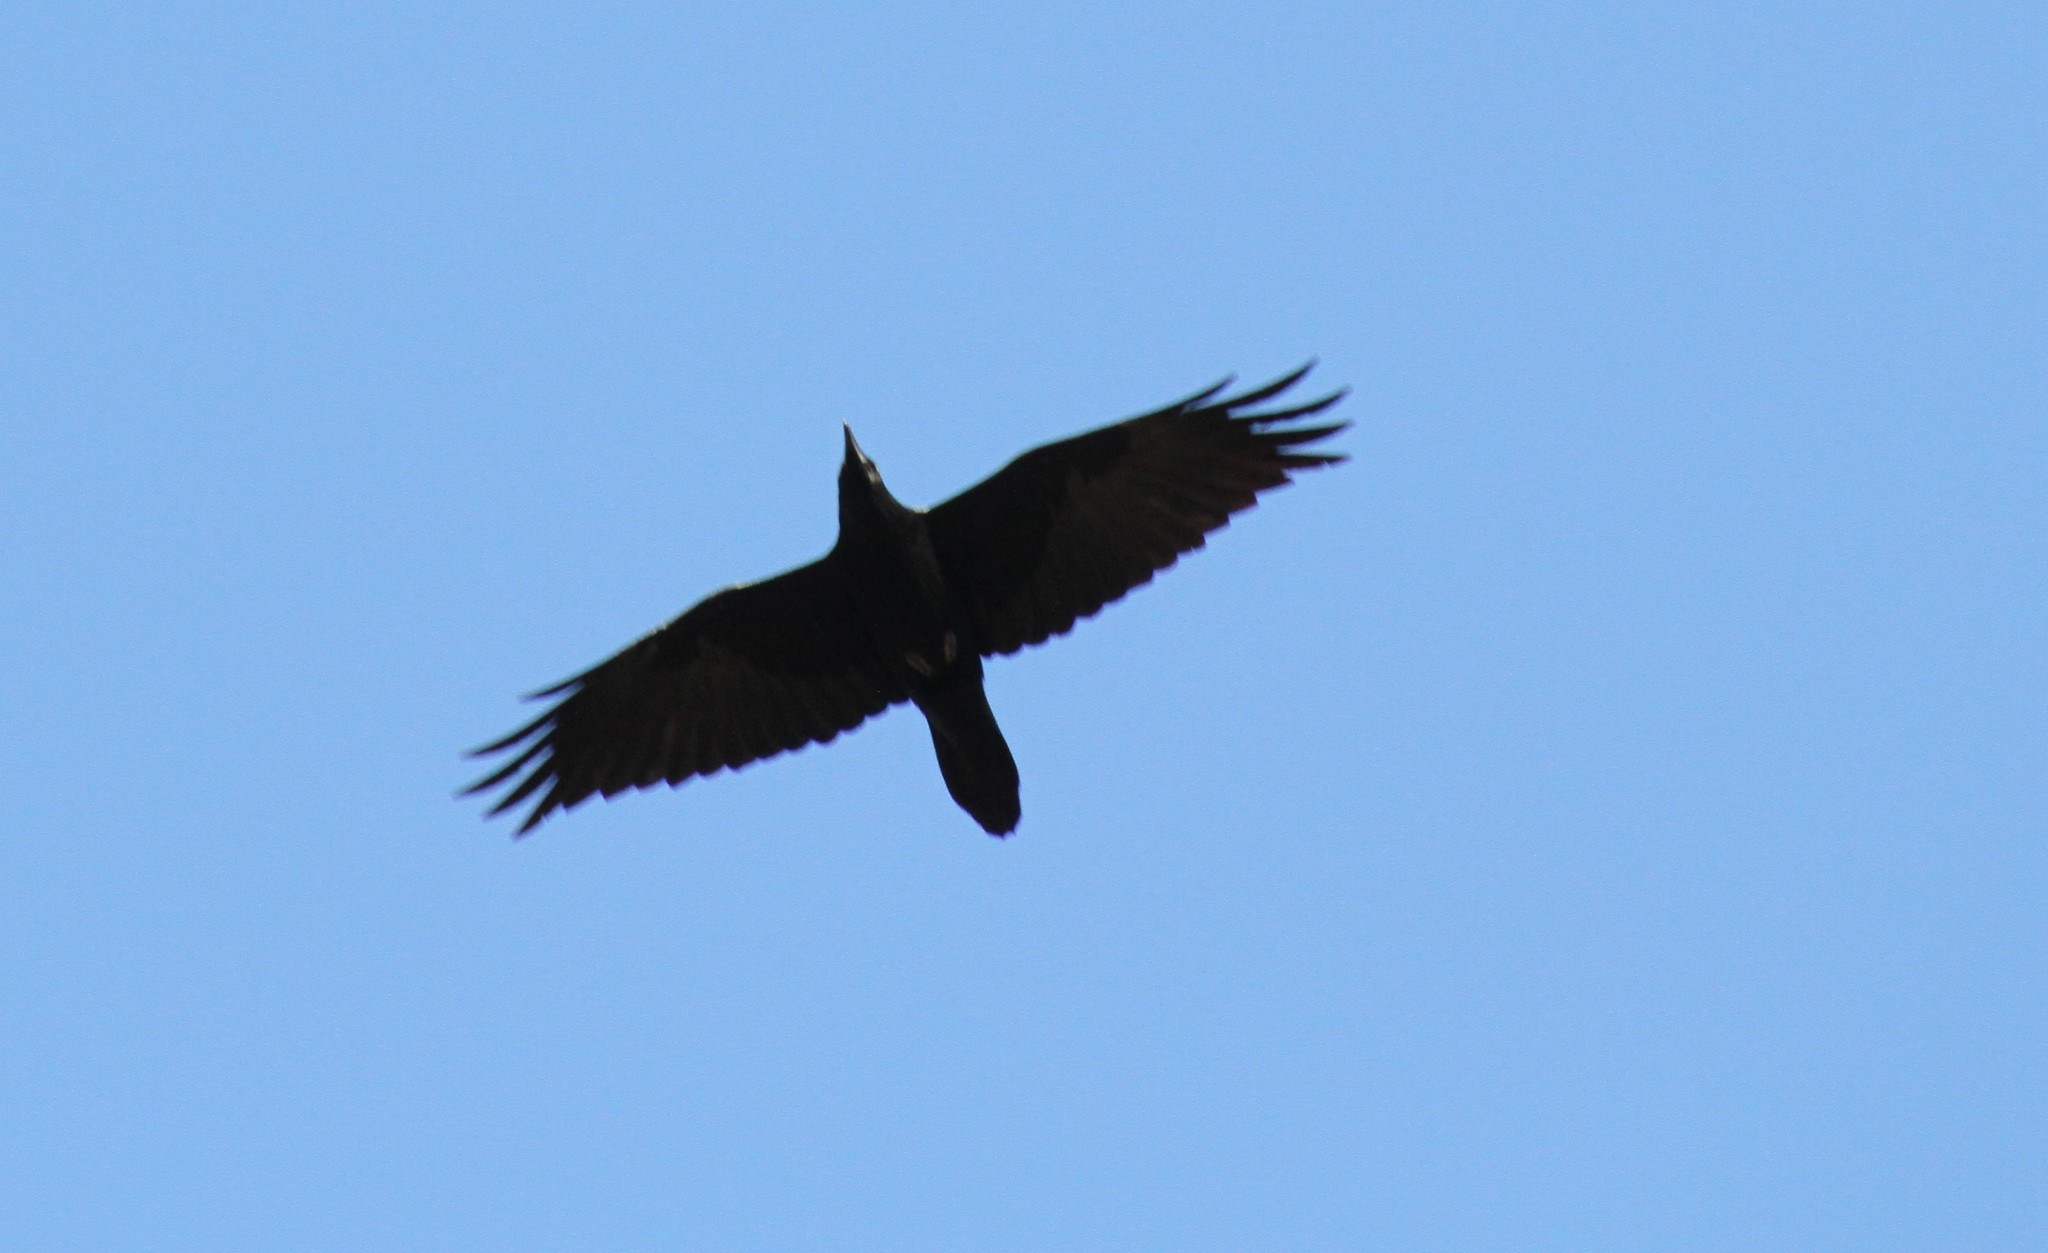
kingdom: Animalia
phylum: Chordata
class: Aves
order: Passeriformes
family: Corvidae
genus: Corvus
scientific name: Corvus corax
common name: Common raven
